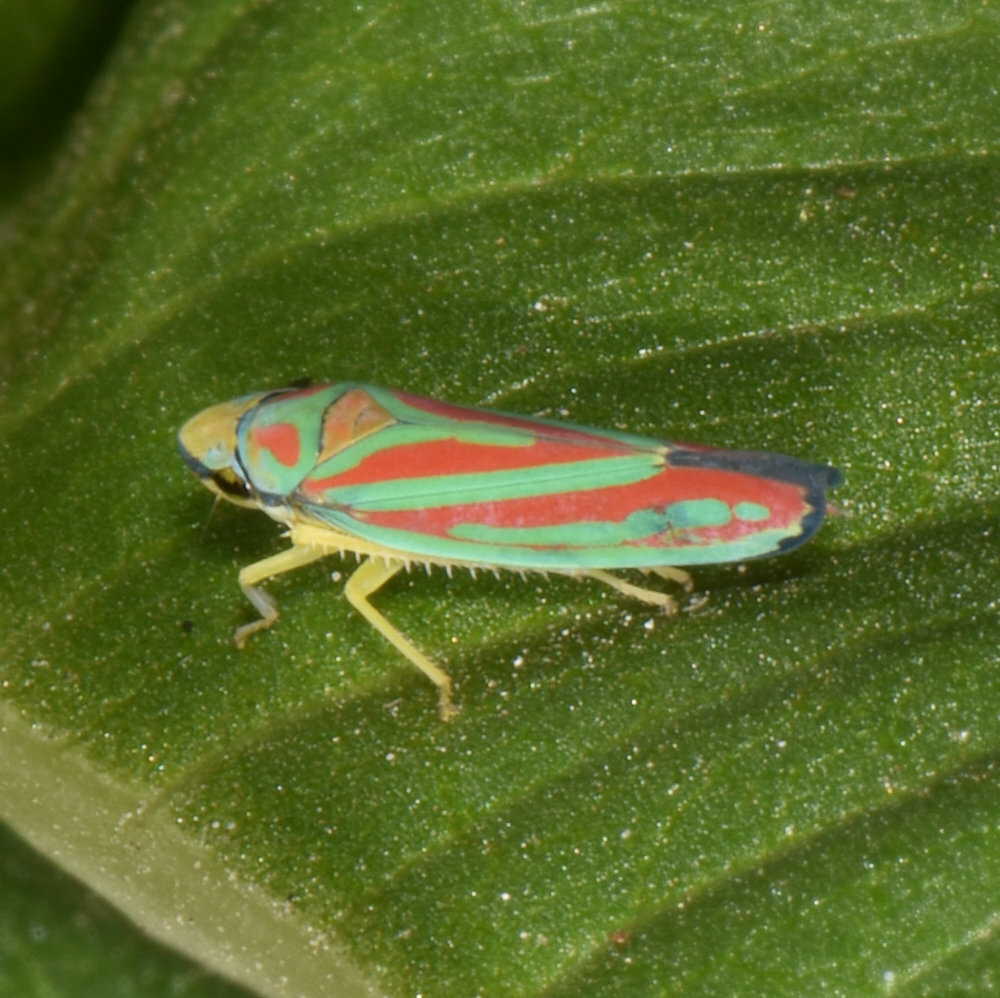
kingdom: Animalia
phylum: Arthropoda
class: Insecta
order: Hemiptera
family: Cicadellidae
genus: Graphocephala
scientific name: Graphocephala coccinea
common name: Candy-striped leafhopper
